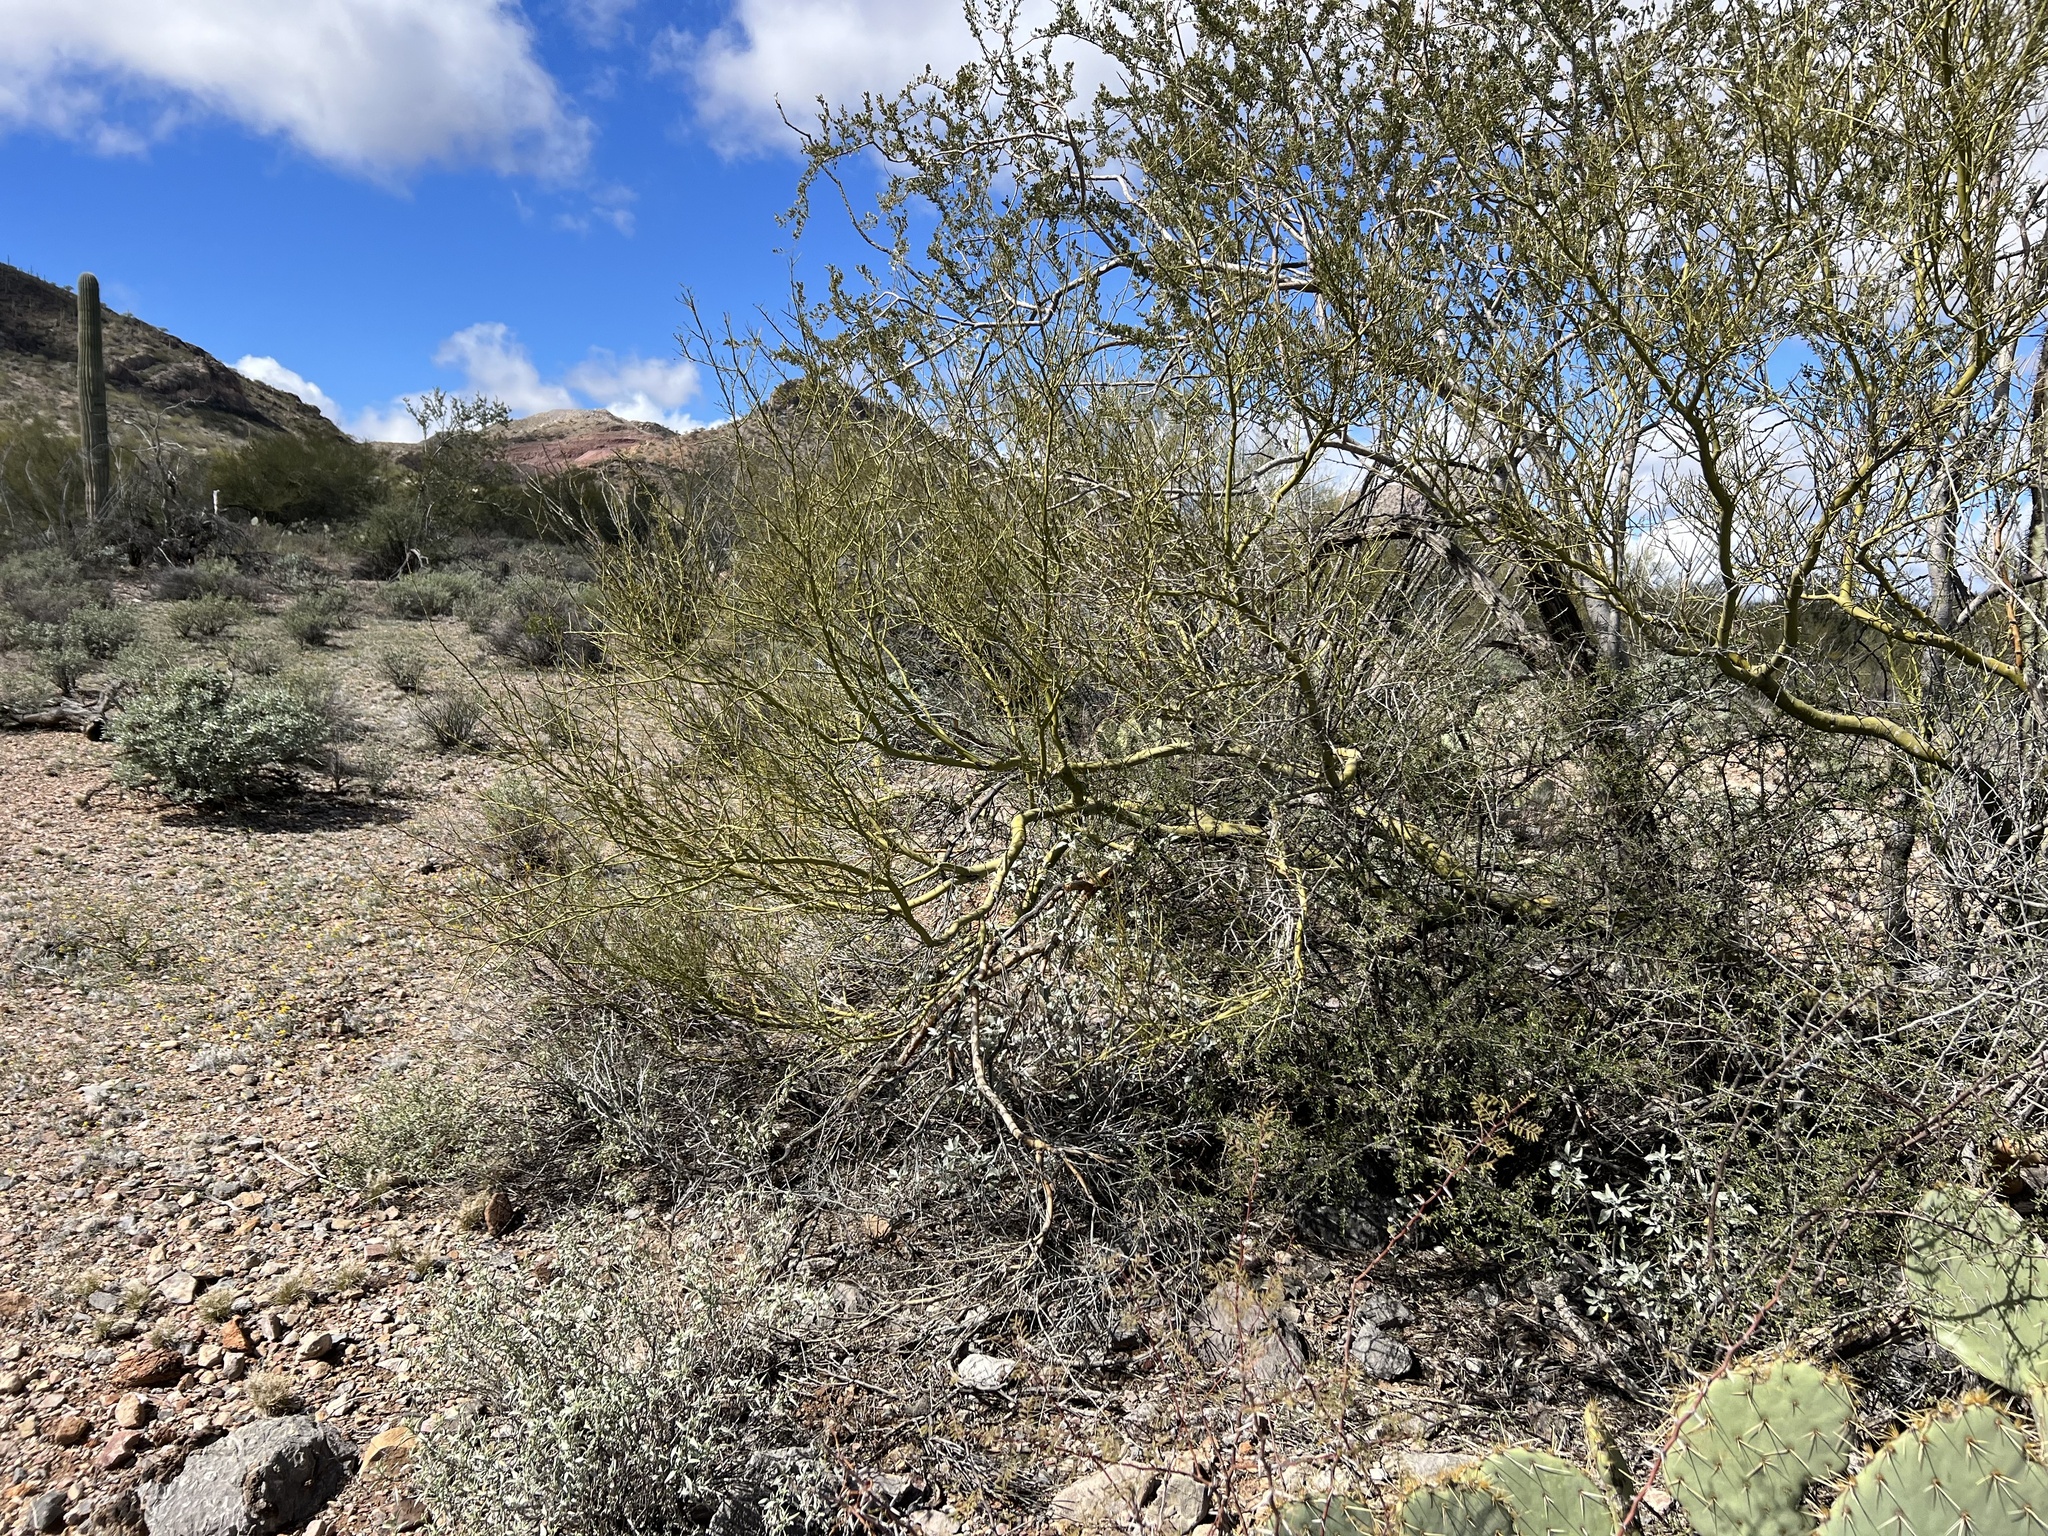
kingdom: Plantae
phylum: Tracheophyta
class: Magnoliopsida
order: Fabales
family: Fabaceae
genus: Parkinsonia
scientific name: Parkinsonia microphylla
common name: Yellow paloverde
